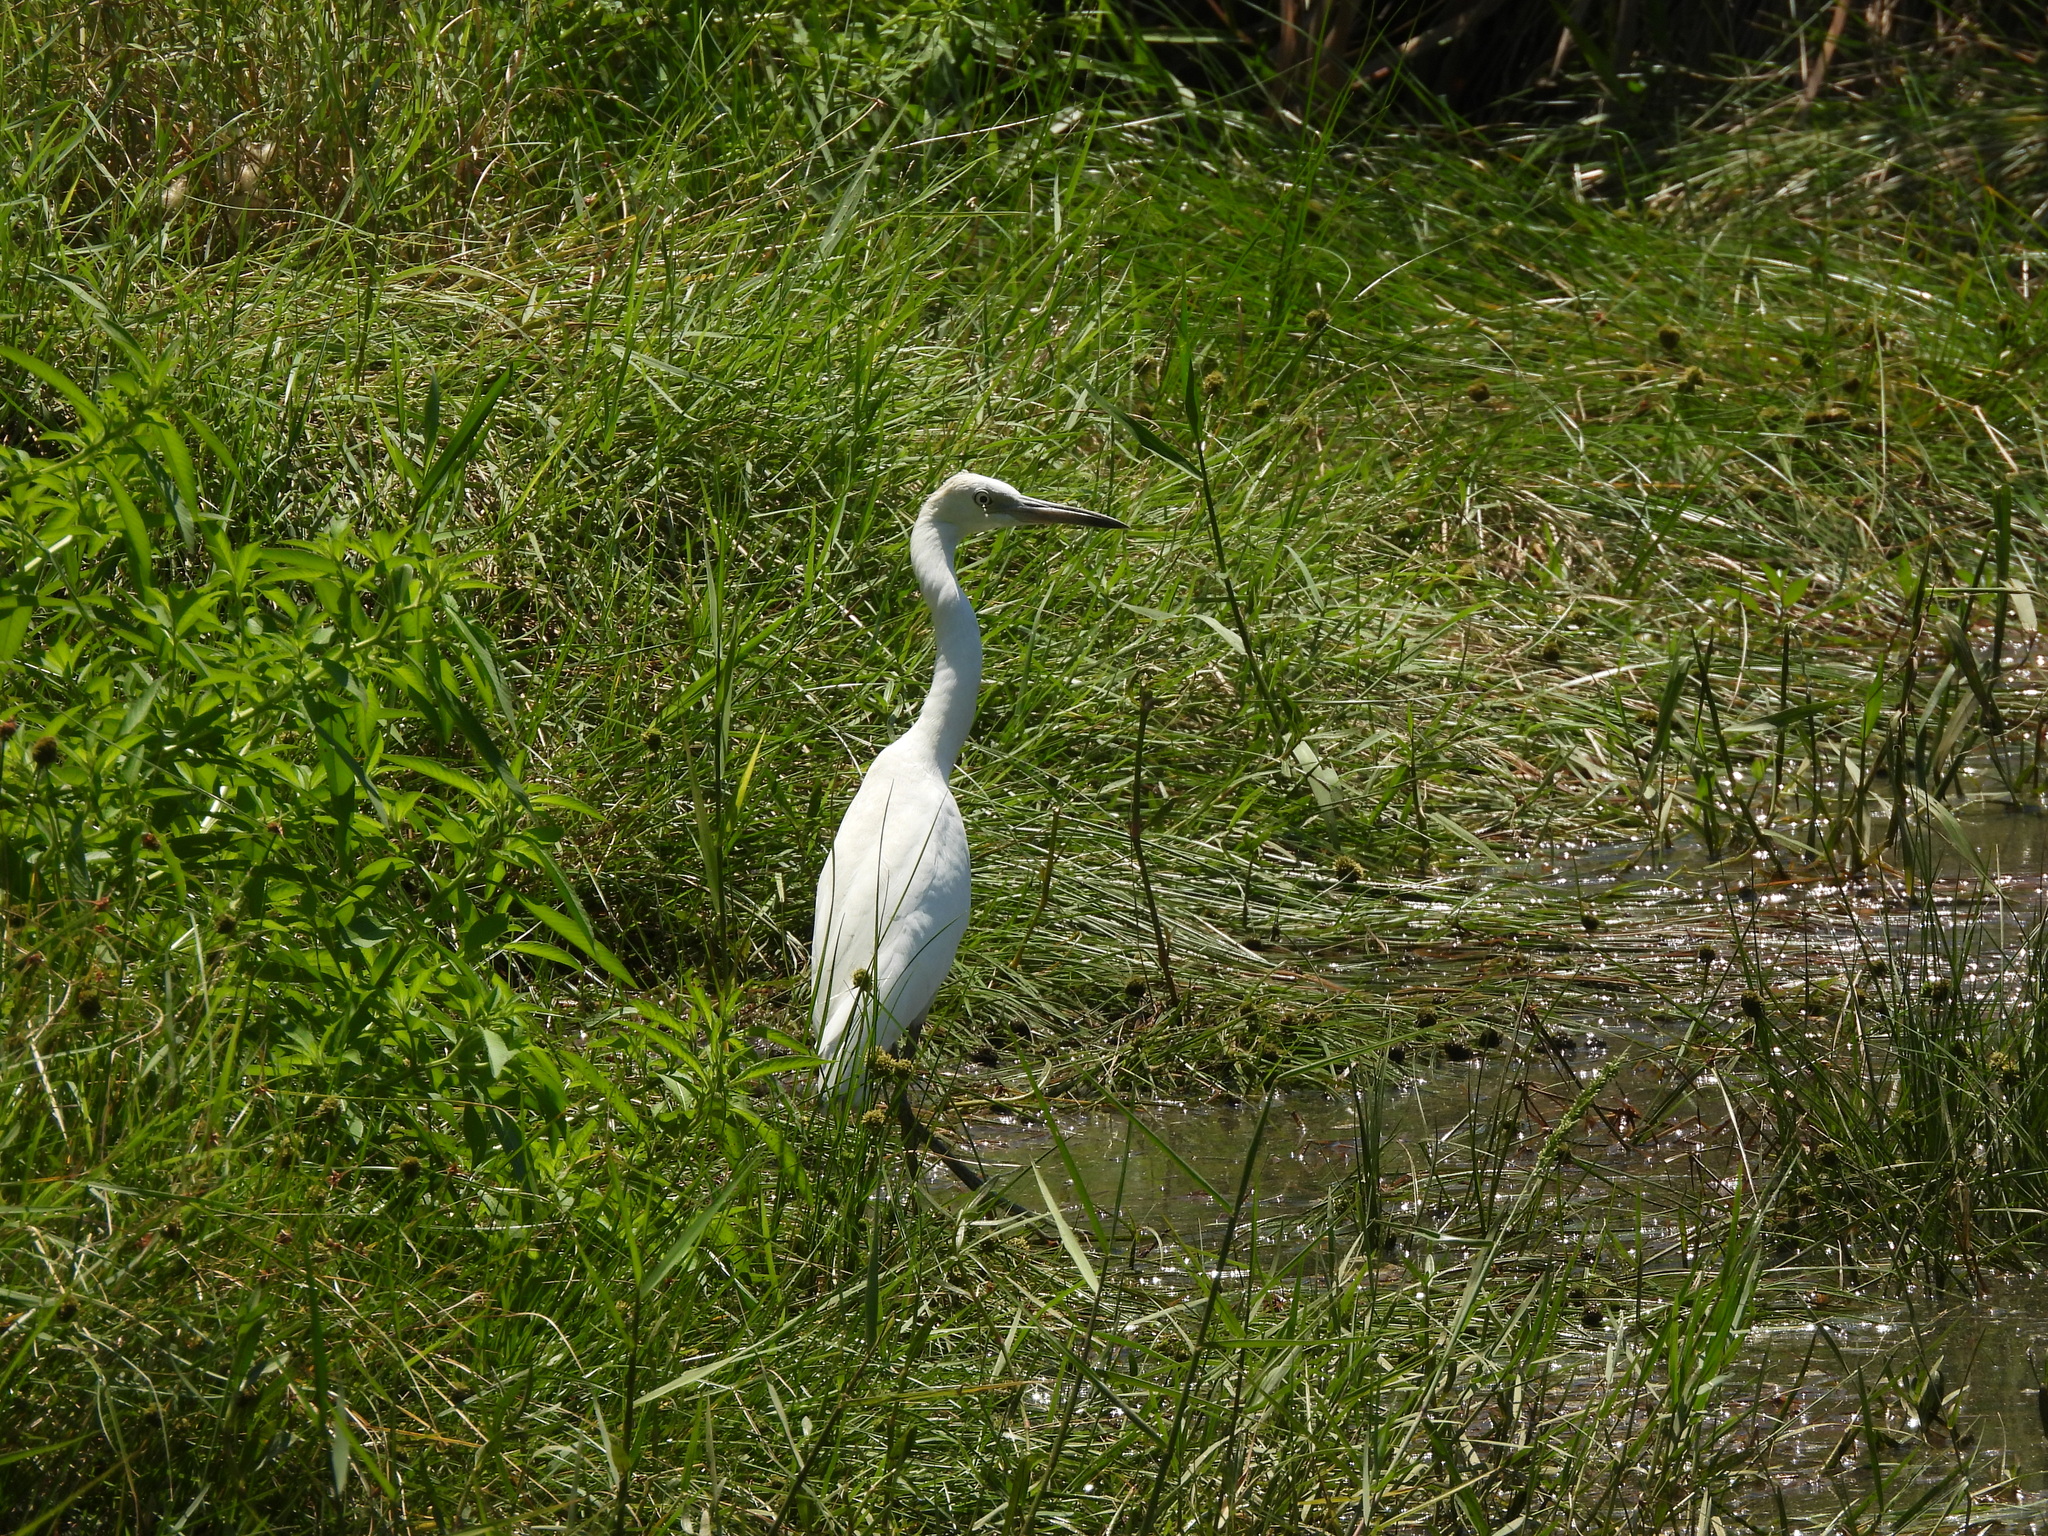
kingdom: Animalia
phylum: Chordata
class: Aves
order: Pelecaniformes
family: Ardeidae
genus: Egretta
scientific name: Egretta caerulea
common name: Little blue heron
